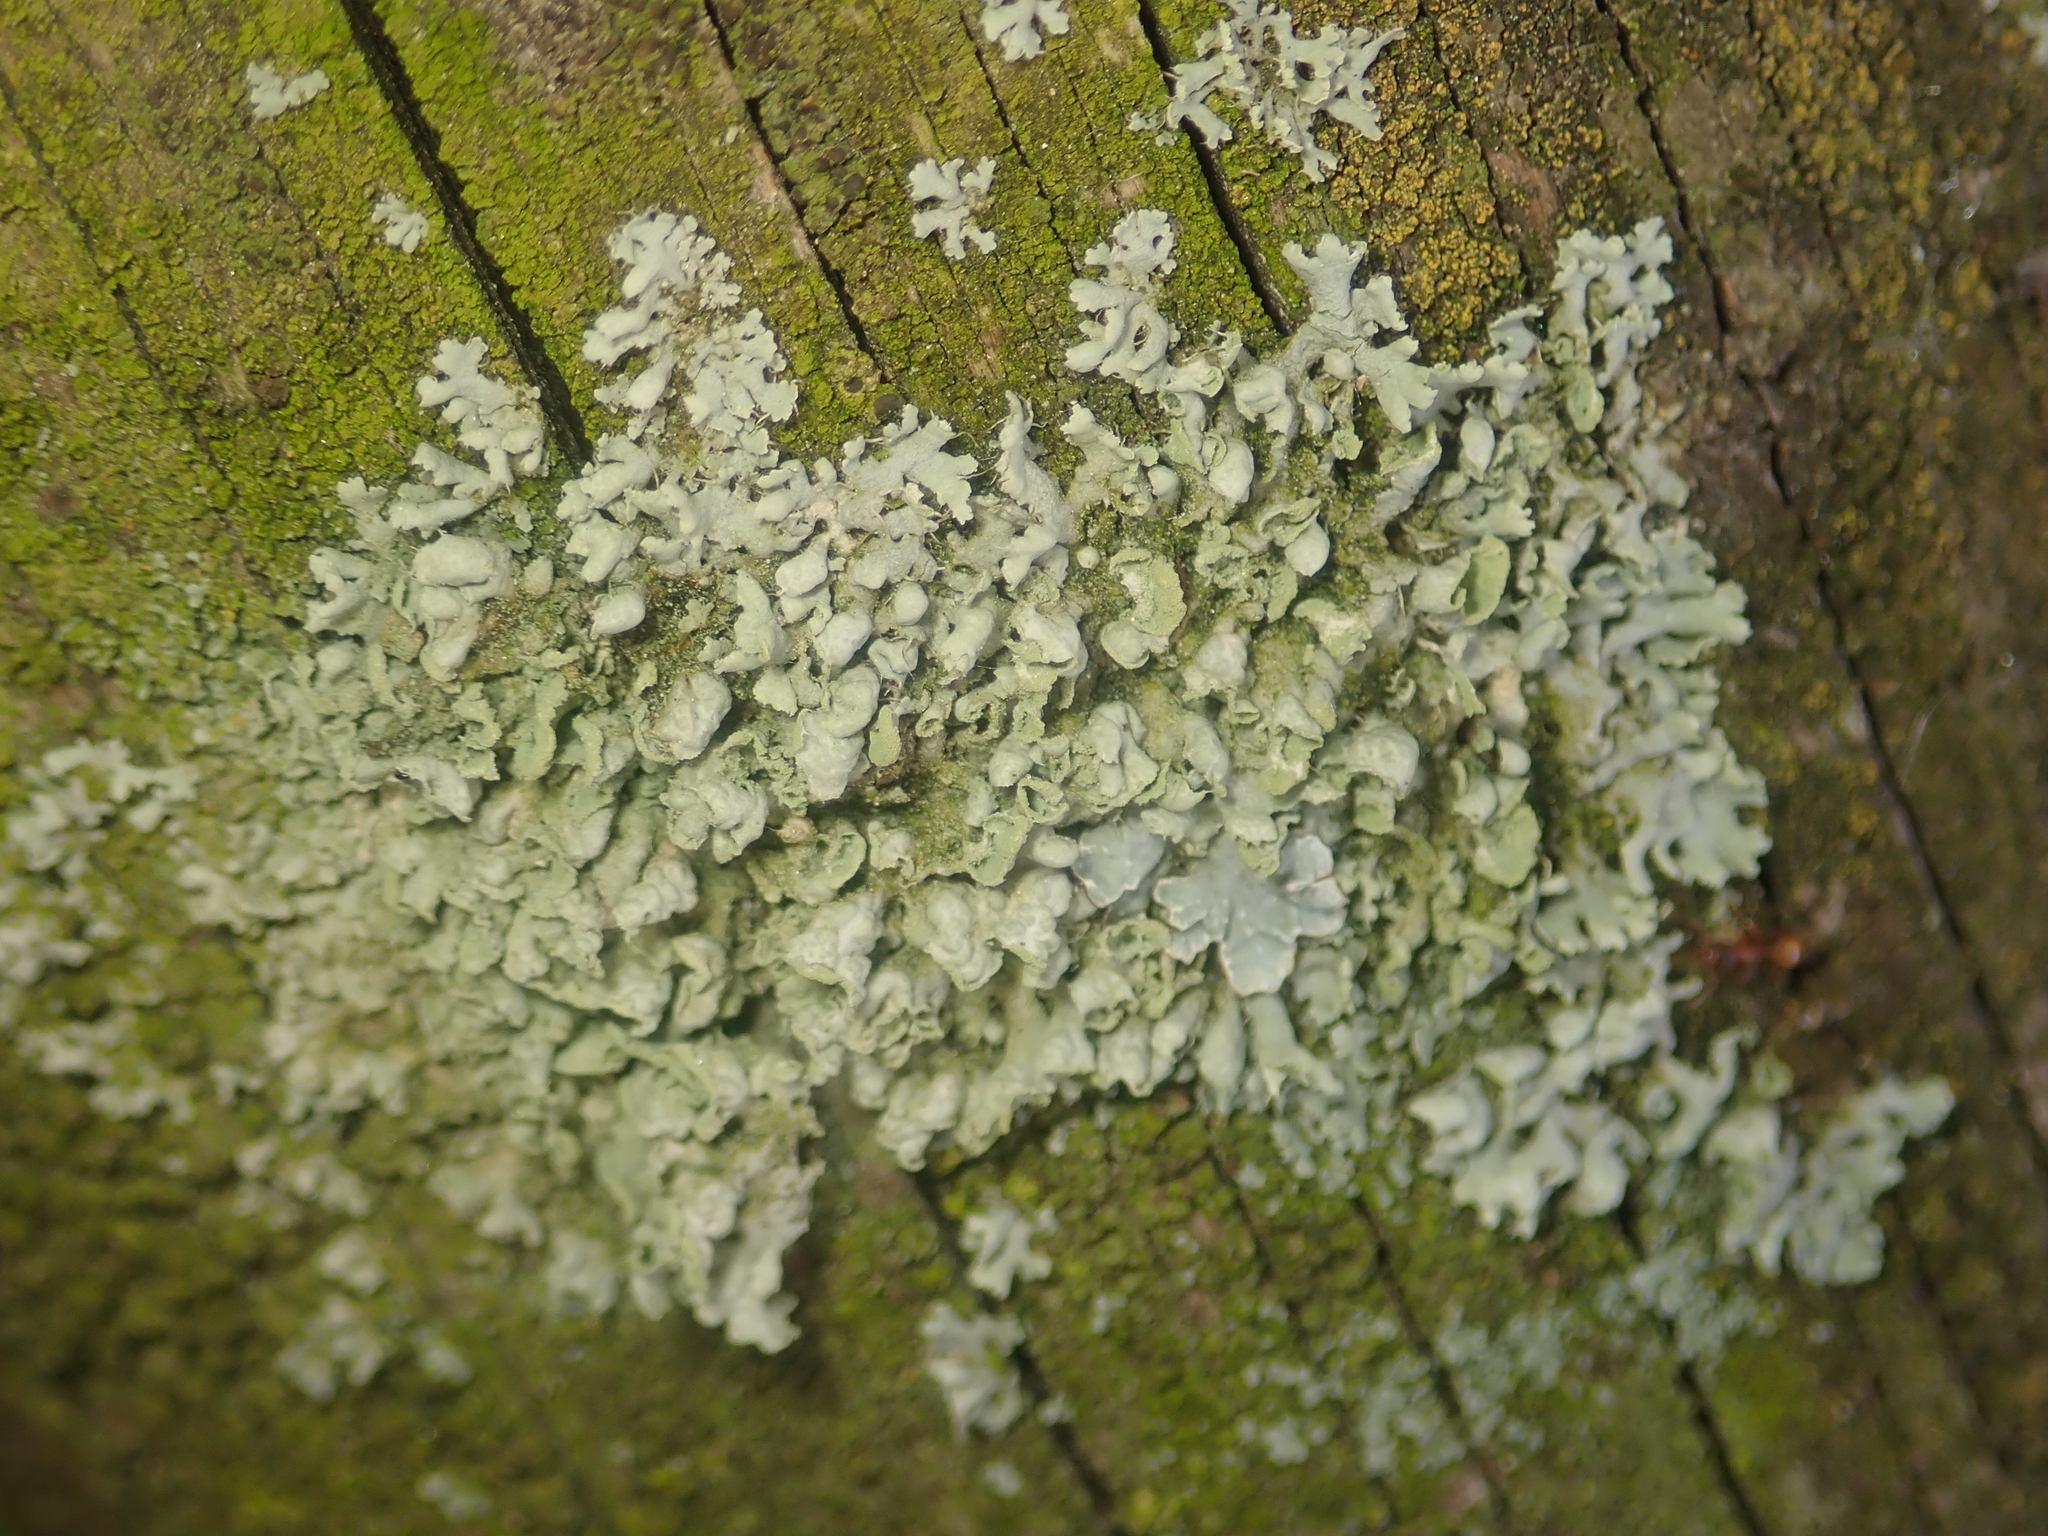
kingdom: Fungi
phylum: Ascomycota
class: Lecanoromycetes
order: Caliciales
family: Physciaceae
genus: Physcia
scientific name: Physcia adscendens
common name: Hooded rosette lichen
